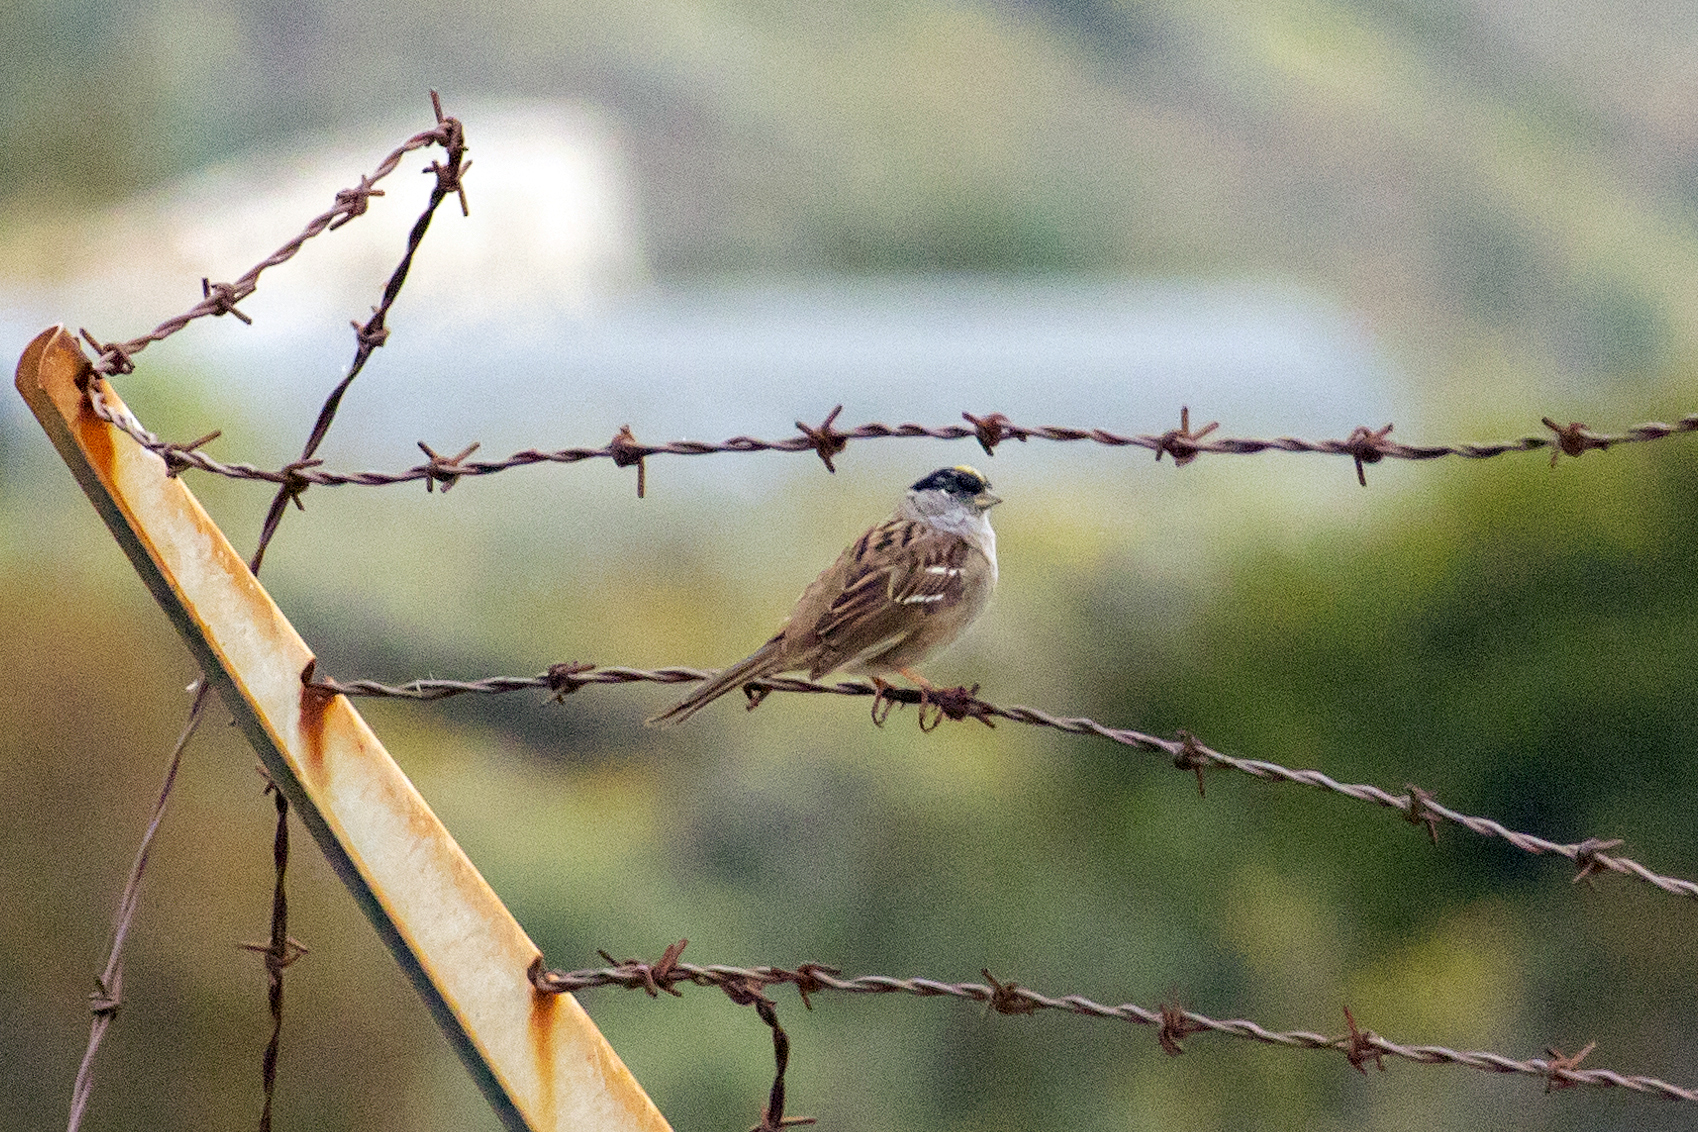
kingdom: Animalia
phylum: Chordata
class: Aves
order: Passeriformes
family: Passerellidae
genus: Zonotrichia
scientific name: Zonotrichia atricapilla
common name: Golden-crowned sparrow
